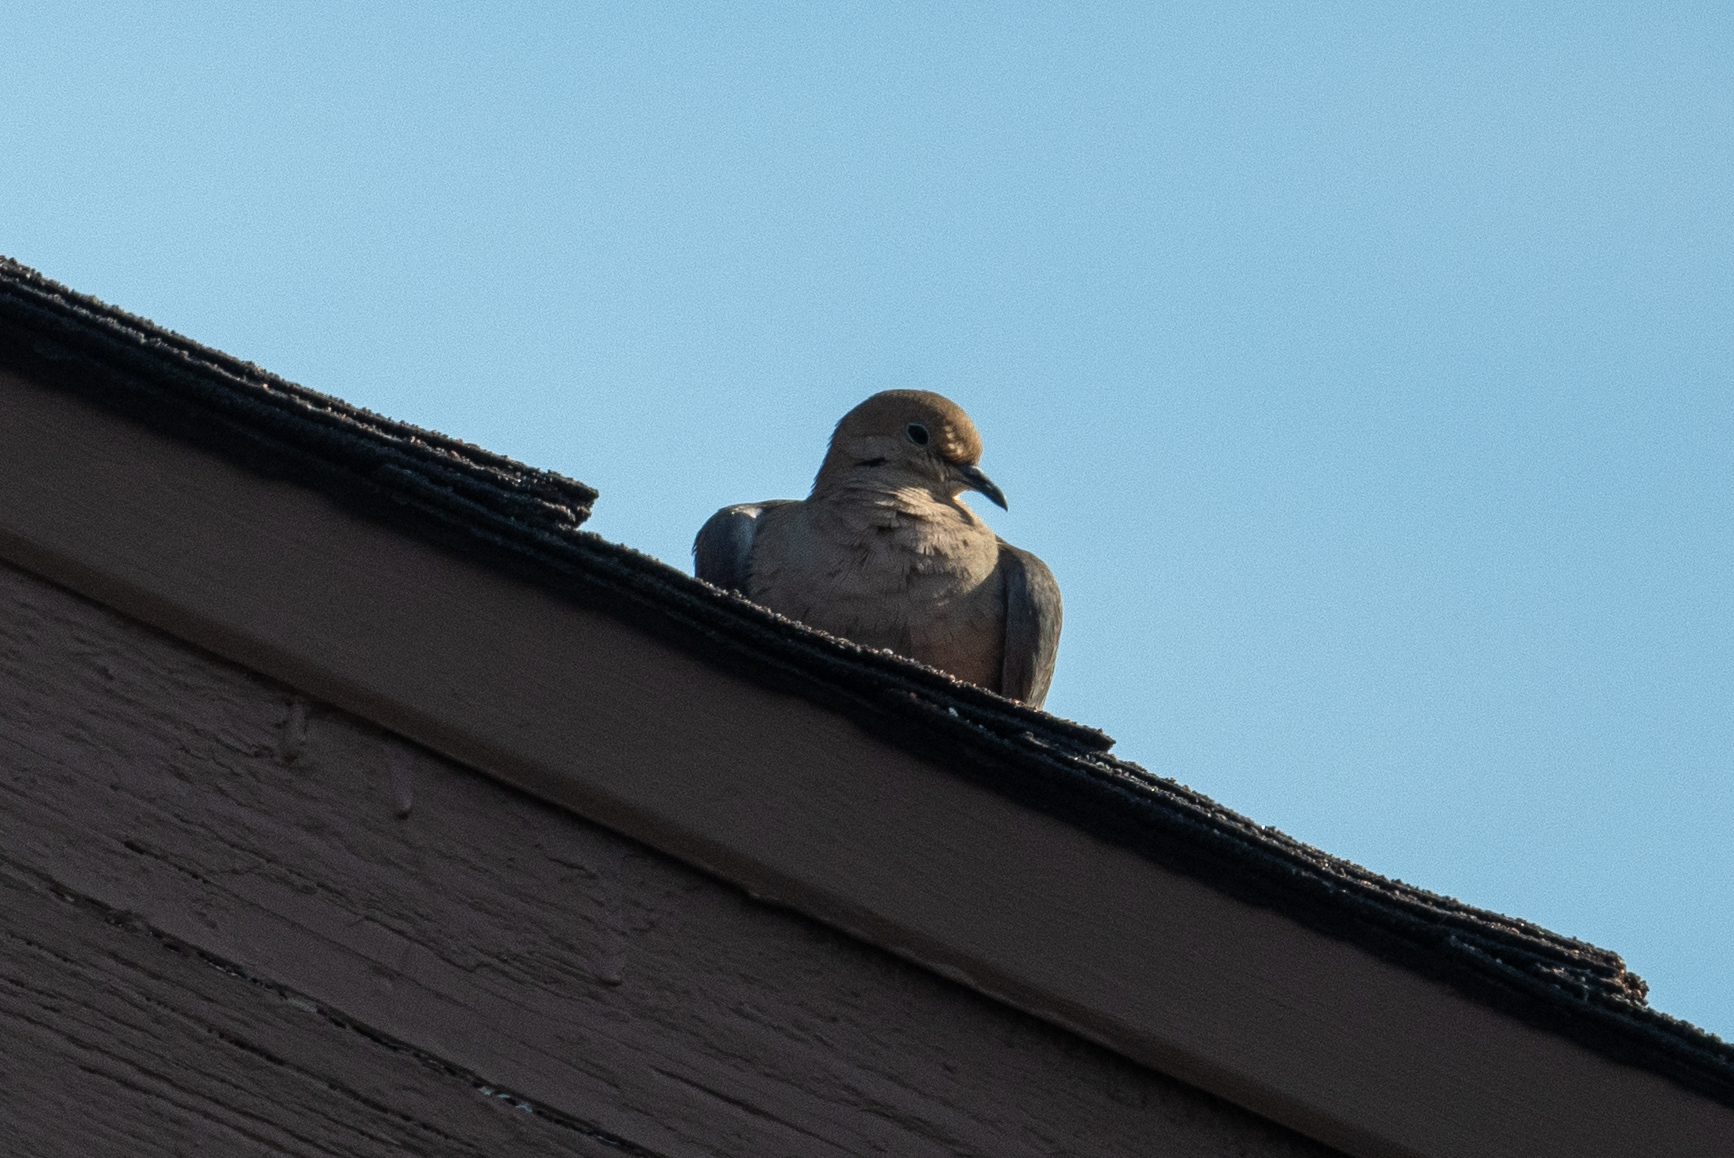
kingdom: Animalia
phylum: Chordata
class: Aves
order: Columbiformes
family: Columbidae
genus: Zenaida
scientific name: Zenaida macroura
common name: Mourning dove
